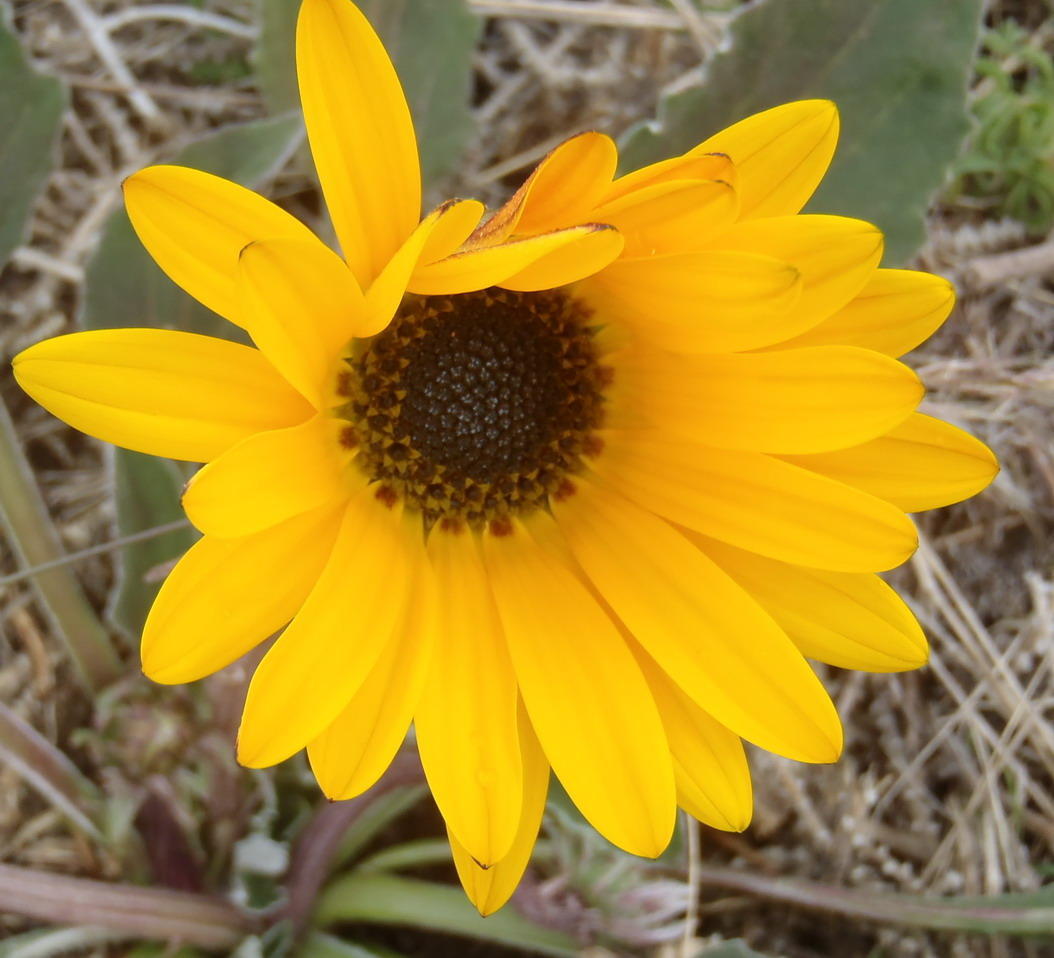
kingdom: Plantae
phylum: Tracheophyta
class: Magnoliopsida
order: Asterales
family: Asteraceae
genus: Arctotis
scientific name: Arctotis acaulis
